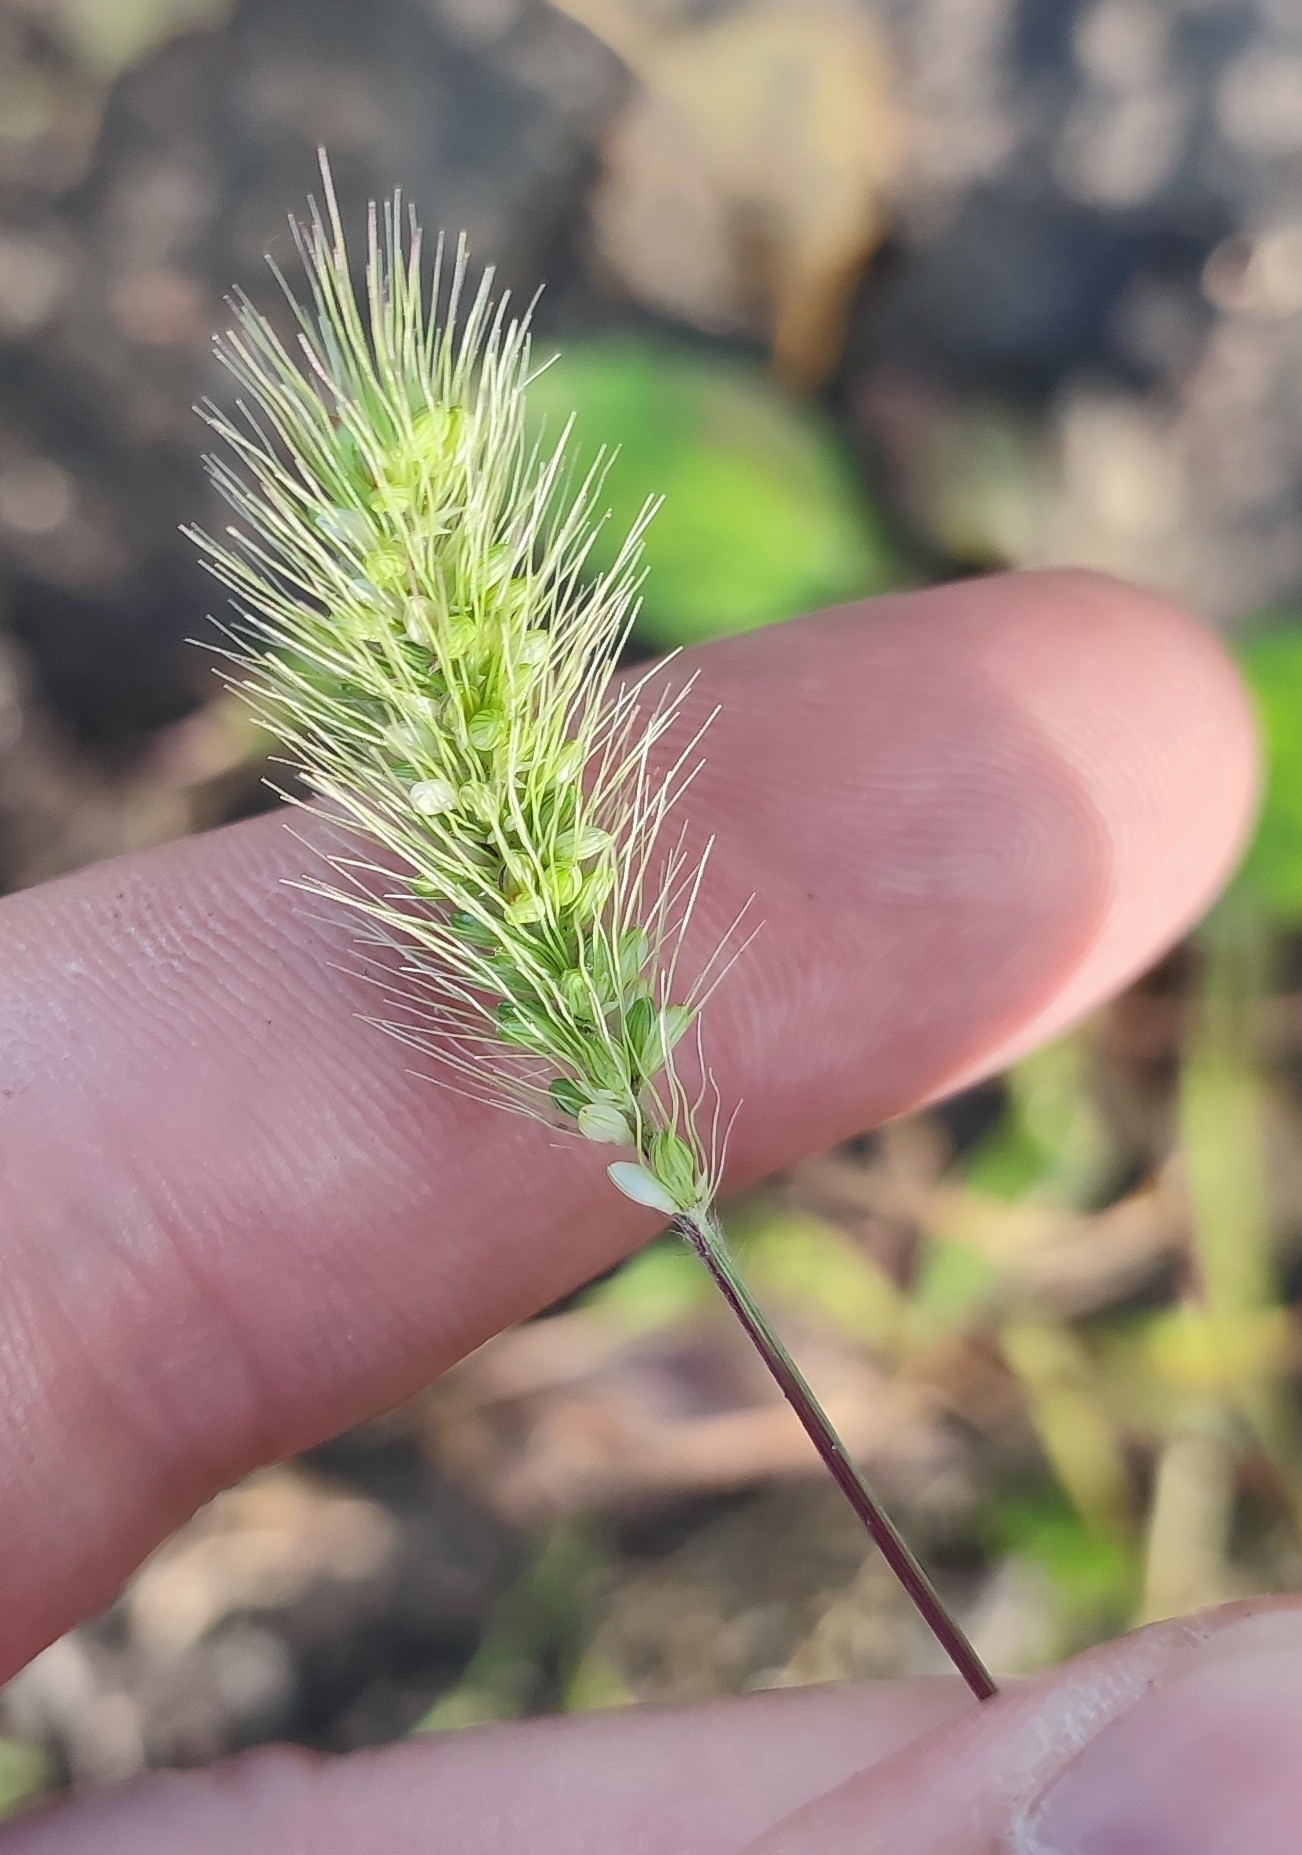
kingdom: Plantae
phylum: Tracheophyta
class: Liliopsida
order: Poales
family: Poaceae
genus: Setaria
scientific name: Setaria viridis
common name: Green bristlegrass
